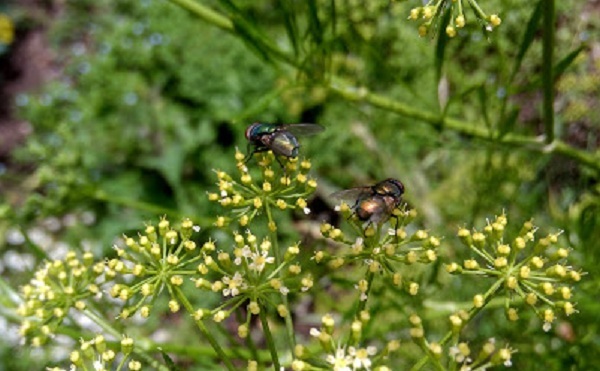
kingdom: Animalia
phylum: Arthropoda
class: Insecta
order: Diptera
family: Calliphoridae
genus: Lucilia
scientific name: Lucilia sericata
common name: Blow fly
